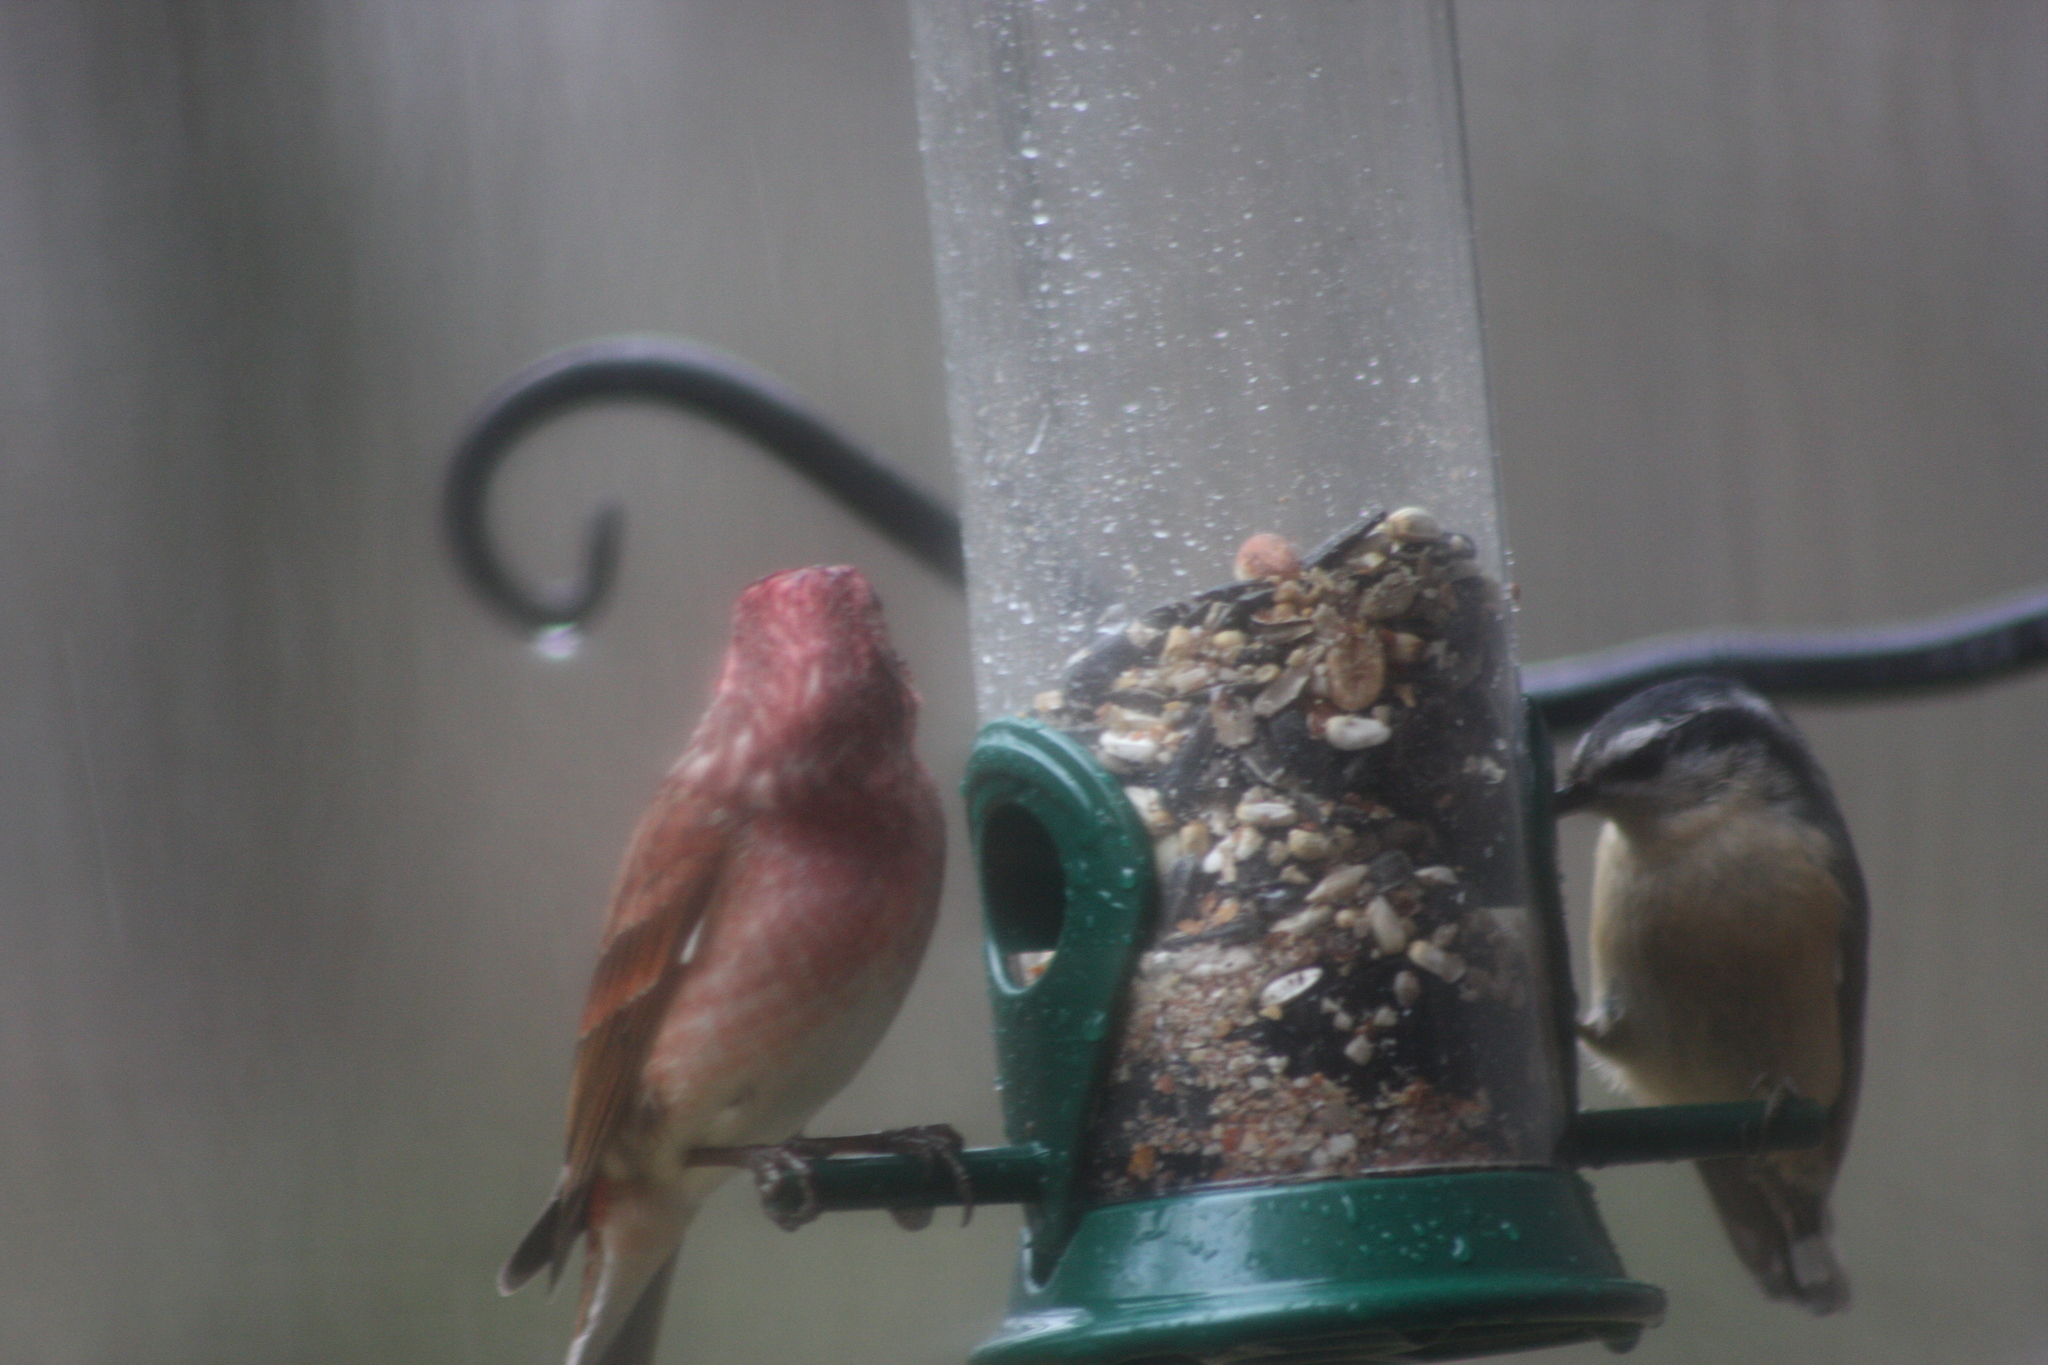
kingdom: Animalia
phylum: Chordata
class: Aves
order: Passeriformes
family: Fringillidae
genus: Haemorhous
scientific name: Haemorhous purpureus
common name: Purple finch
